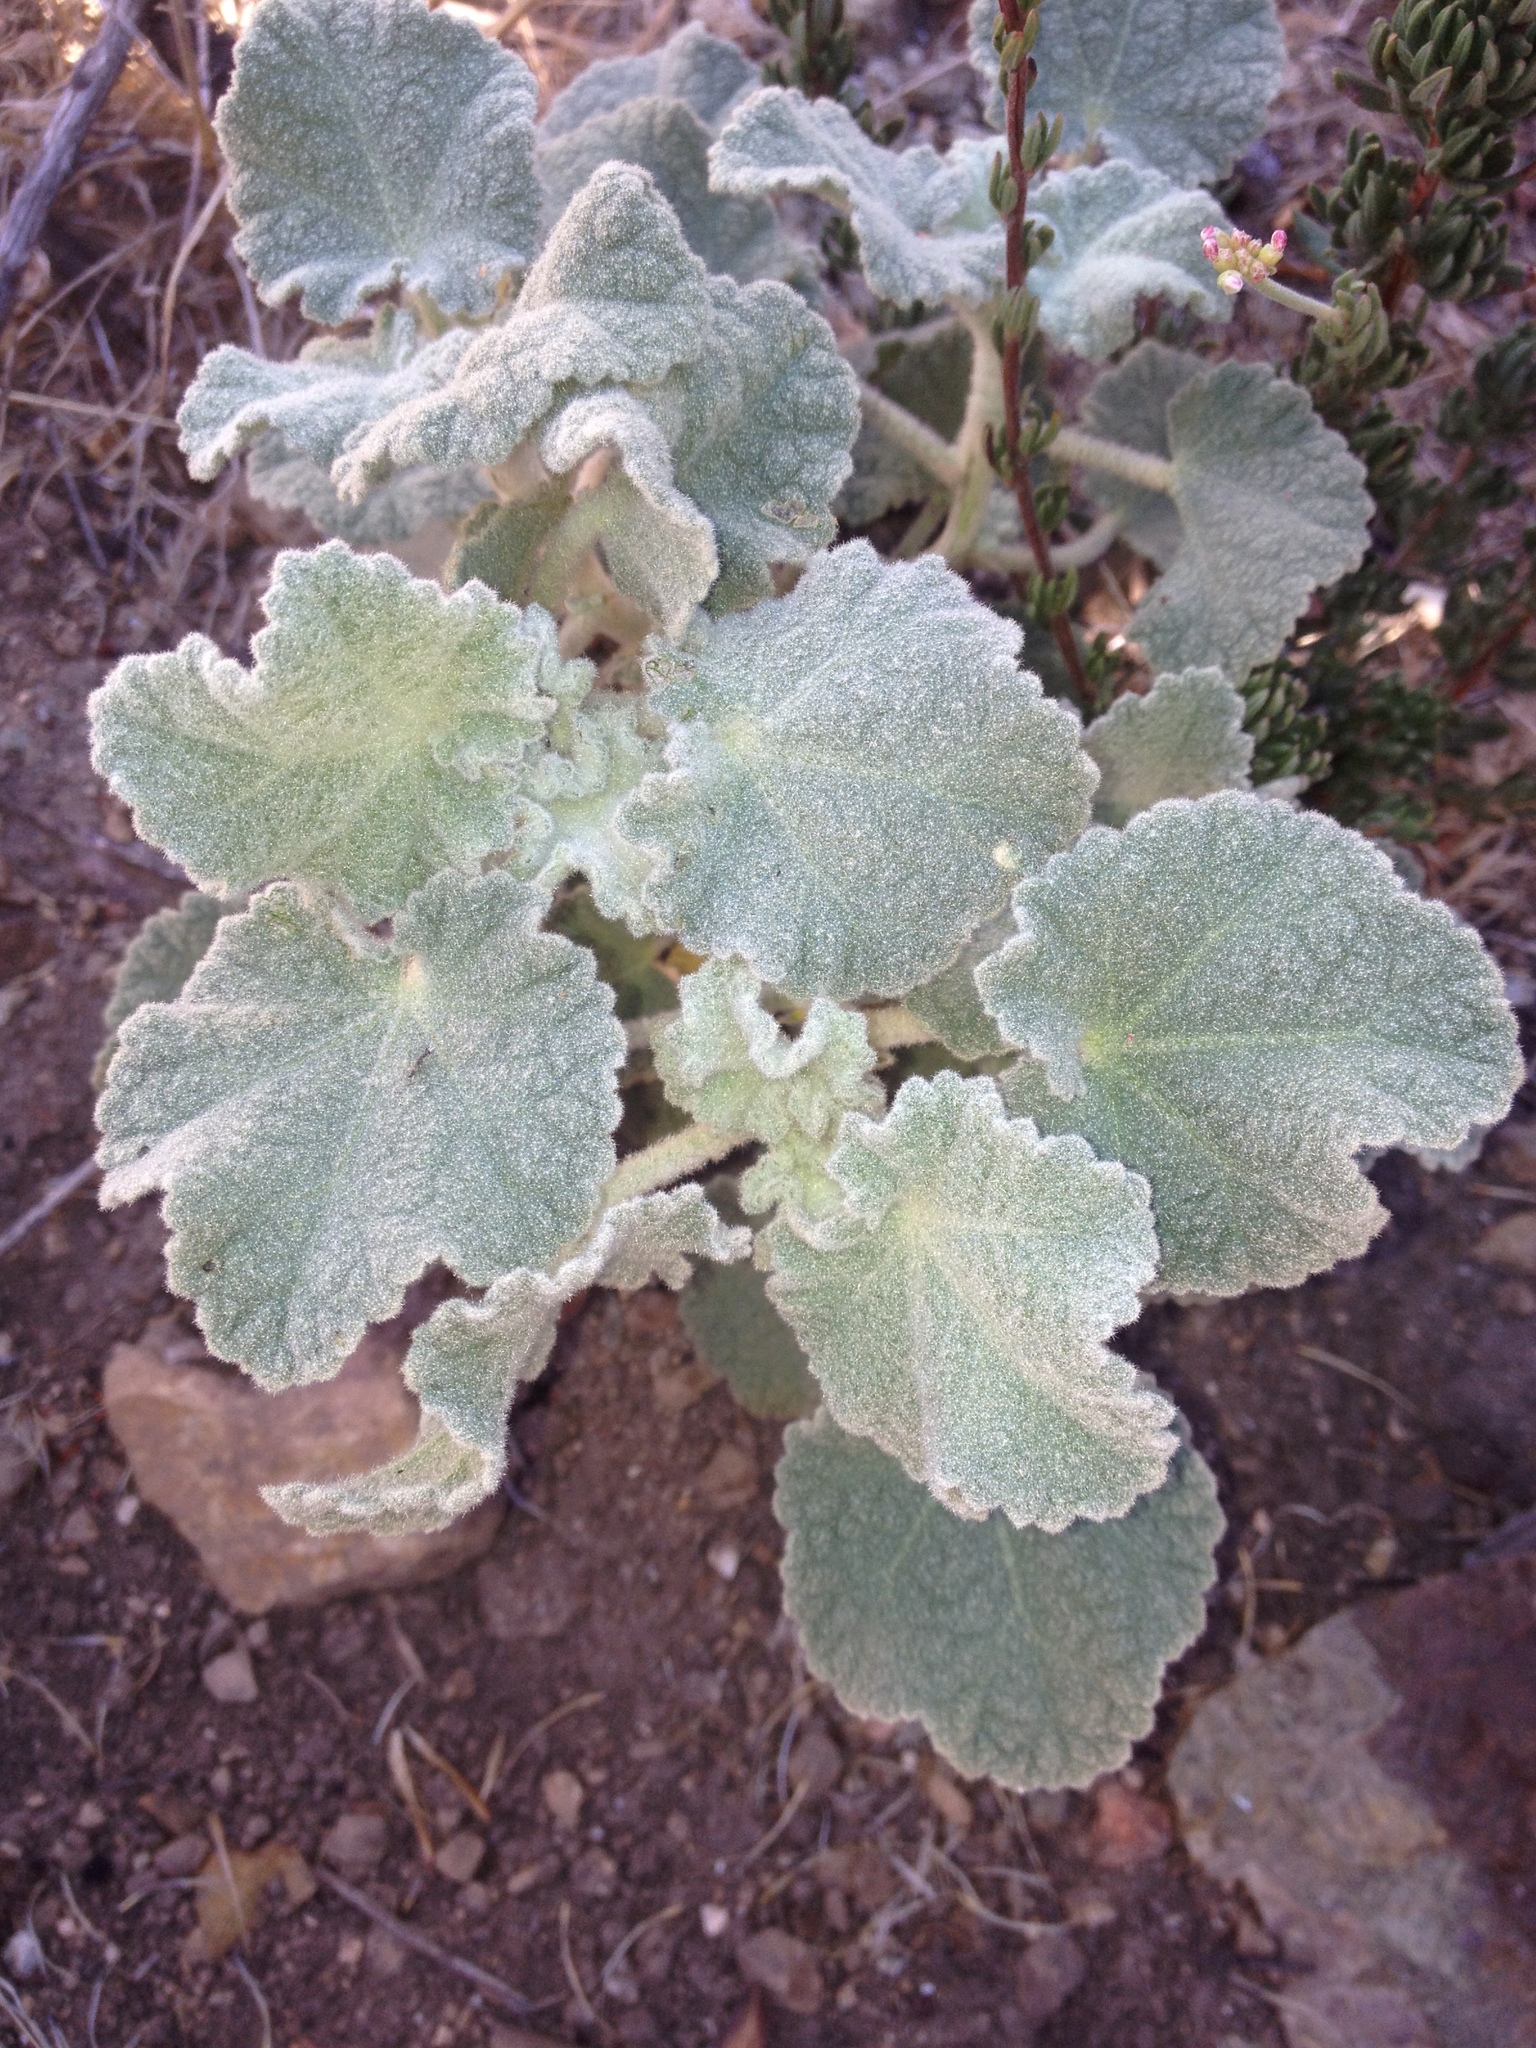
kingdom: Plantae
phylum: Tracheophyta
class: Magnoliopsida
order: Malvales
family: Malvaceae
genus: Malacothamnus
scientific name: Malacothamnus davidsonii
